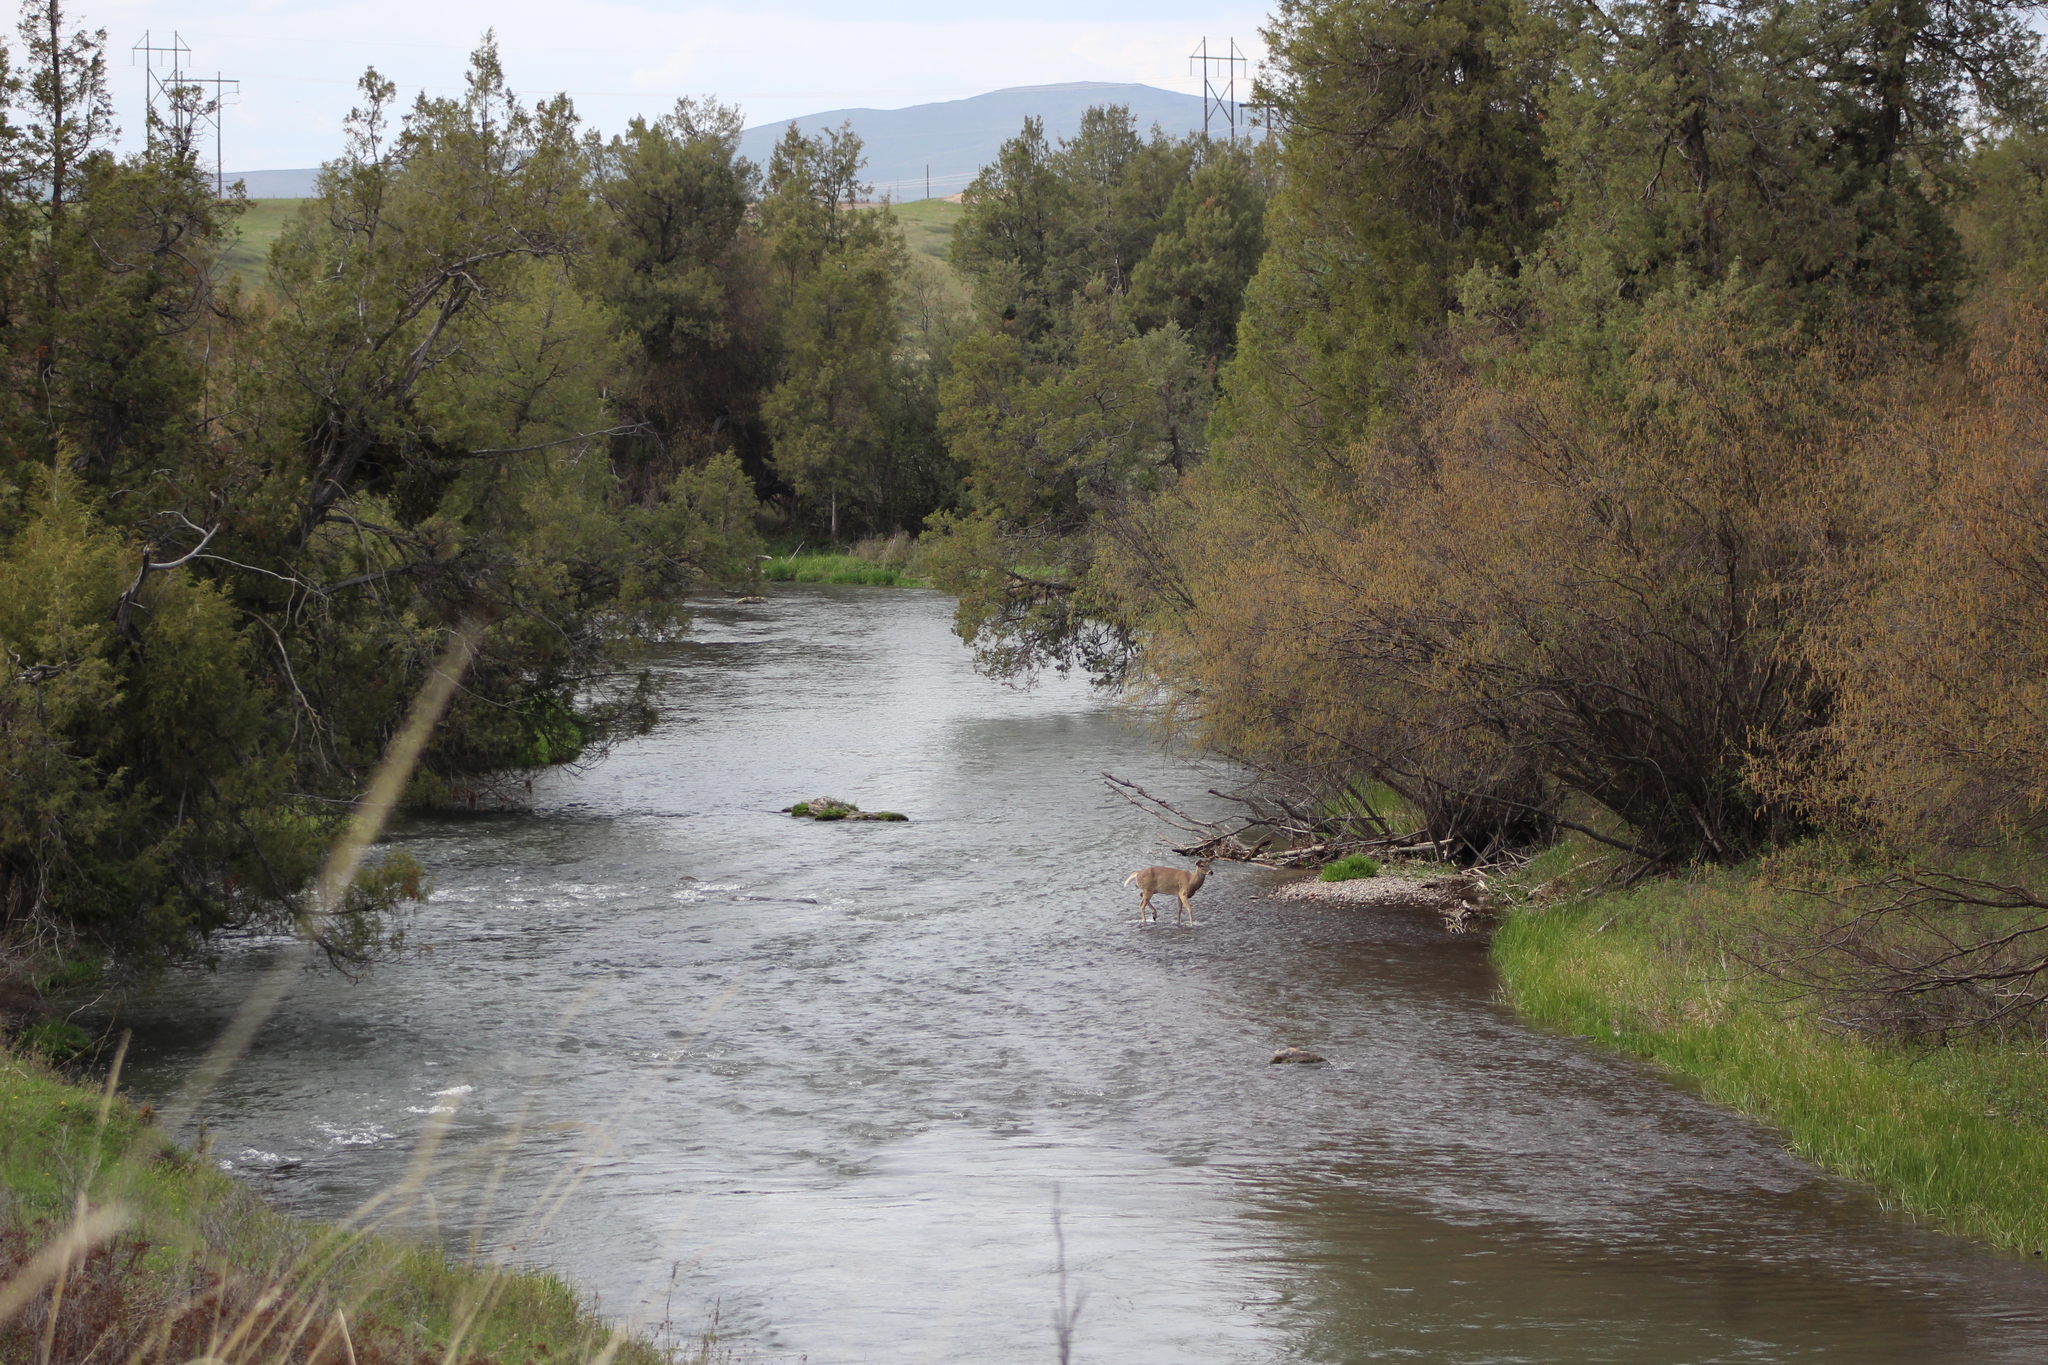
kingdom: Animalia
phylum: Chordata
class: Mammalia
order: Artiodactyla
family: Cervidae
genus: Odocoileus
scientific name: Odocoileus virginianus
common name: White-tailed deer
